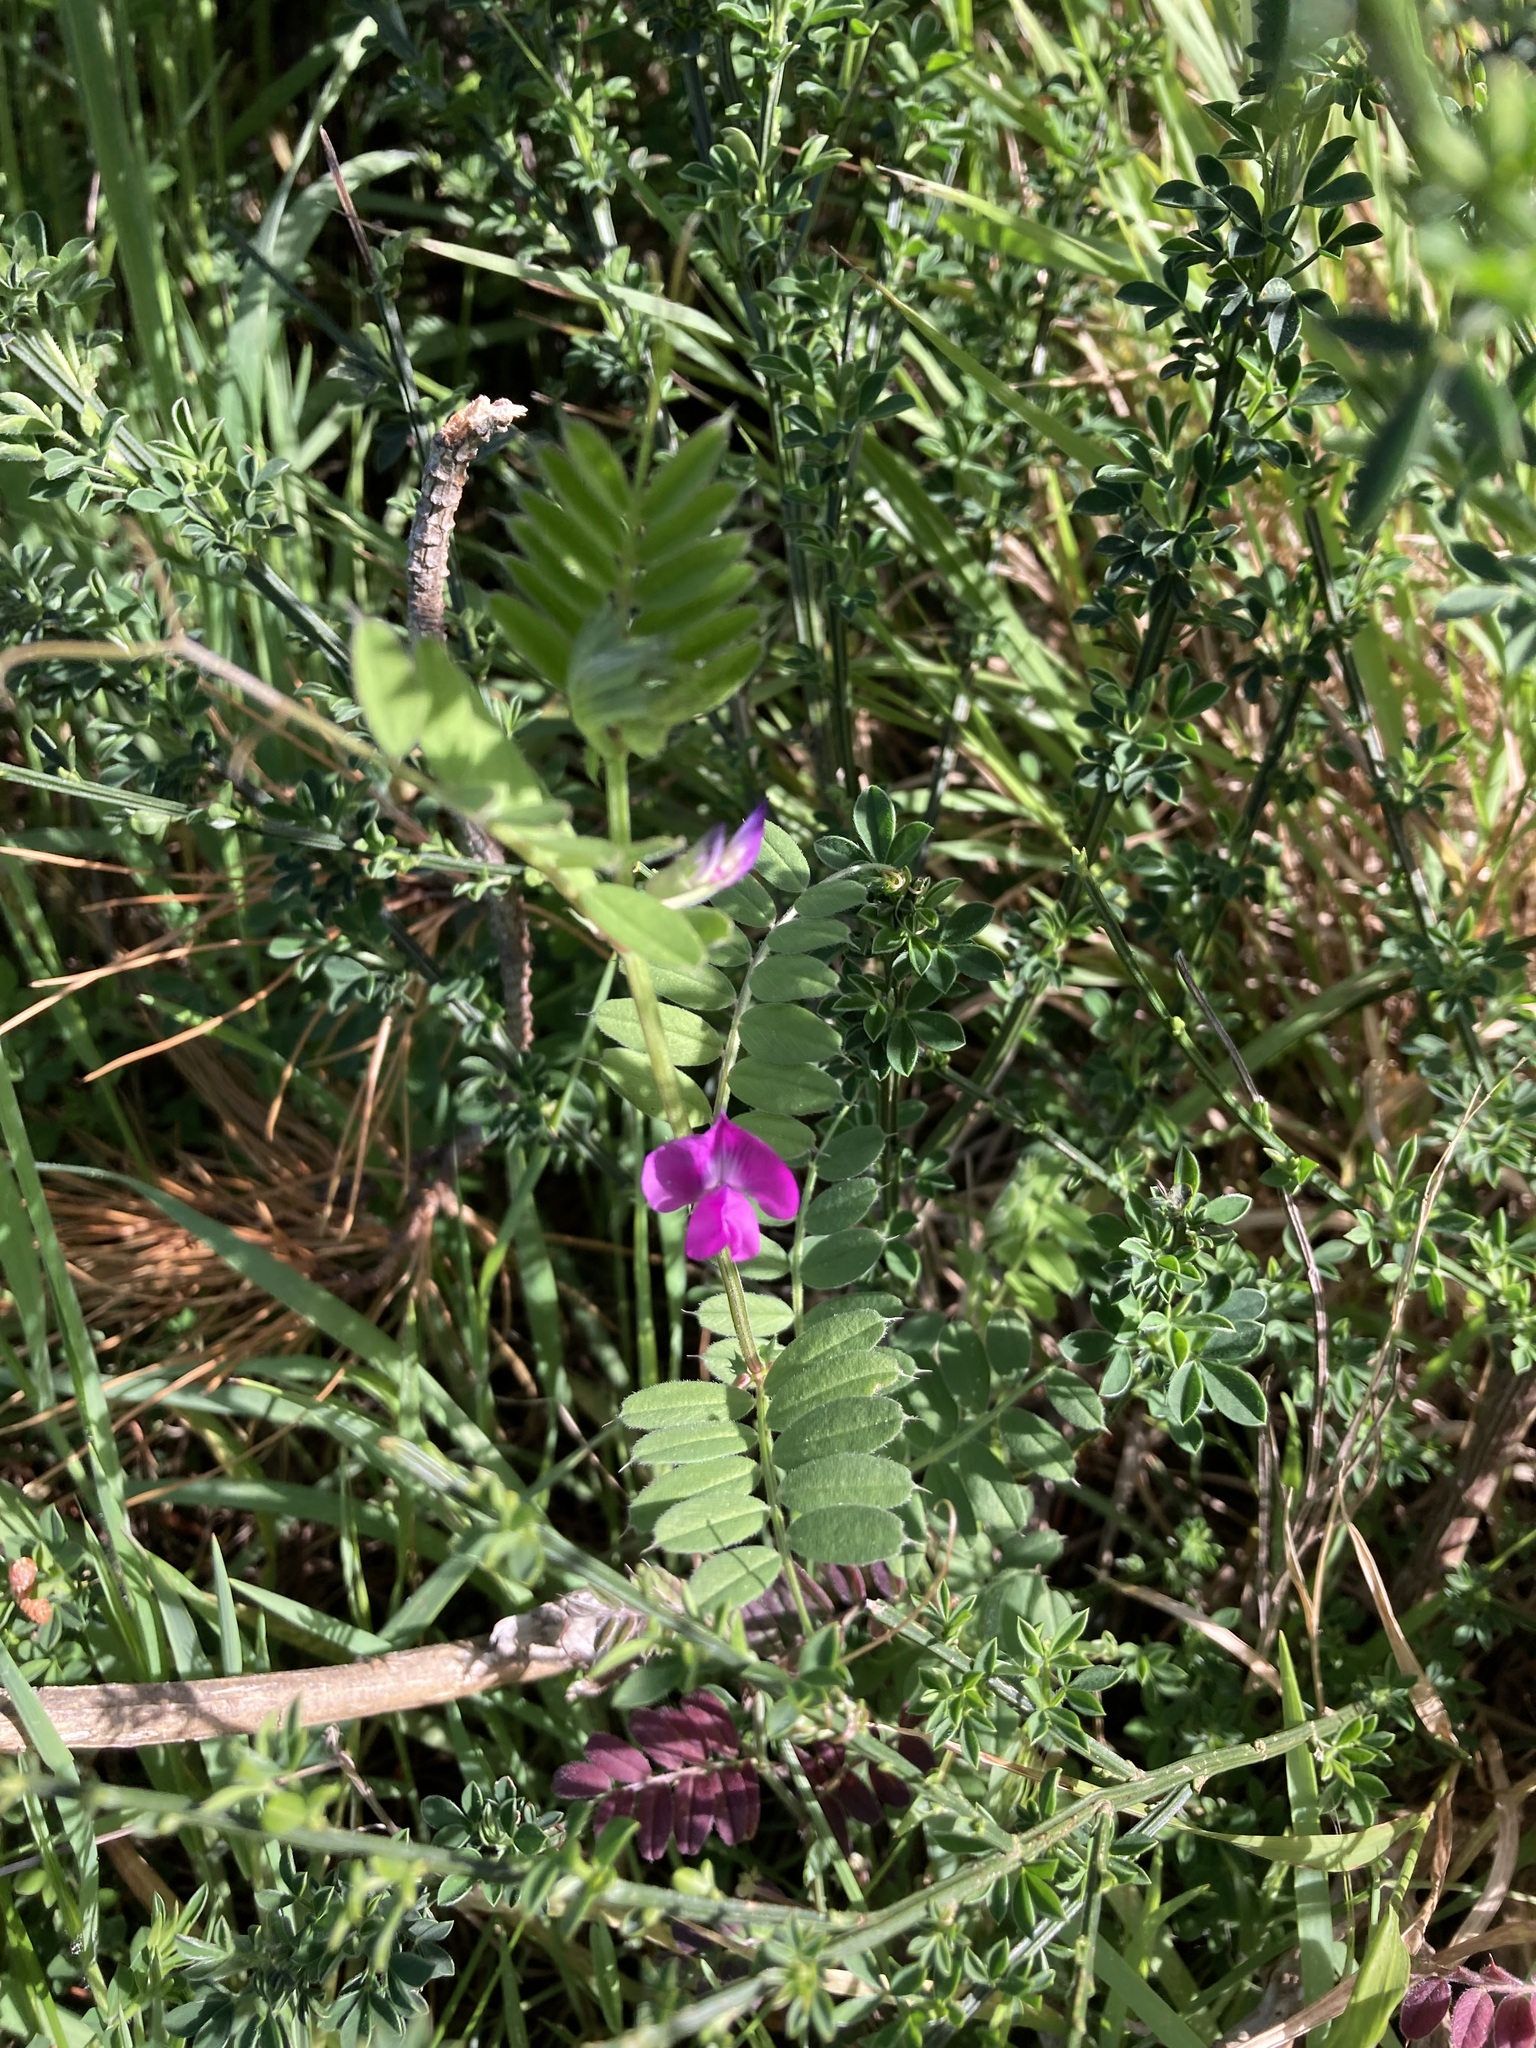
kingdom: Plantae
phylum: Tracheophyta
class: Magnoliopsida
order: Fabales
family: Fabaceae
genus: Vicia
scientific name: Vicia sativa
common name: Garden vetch
